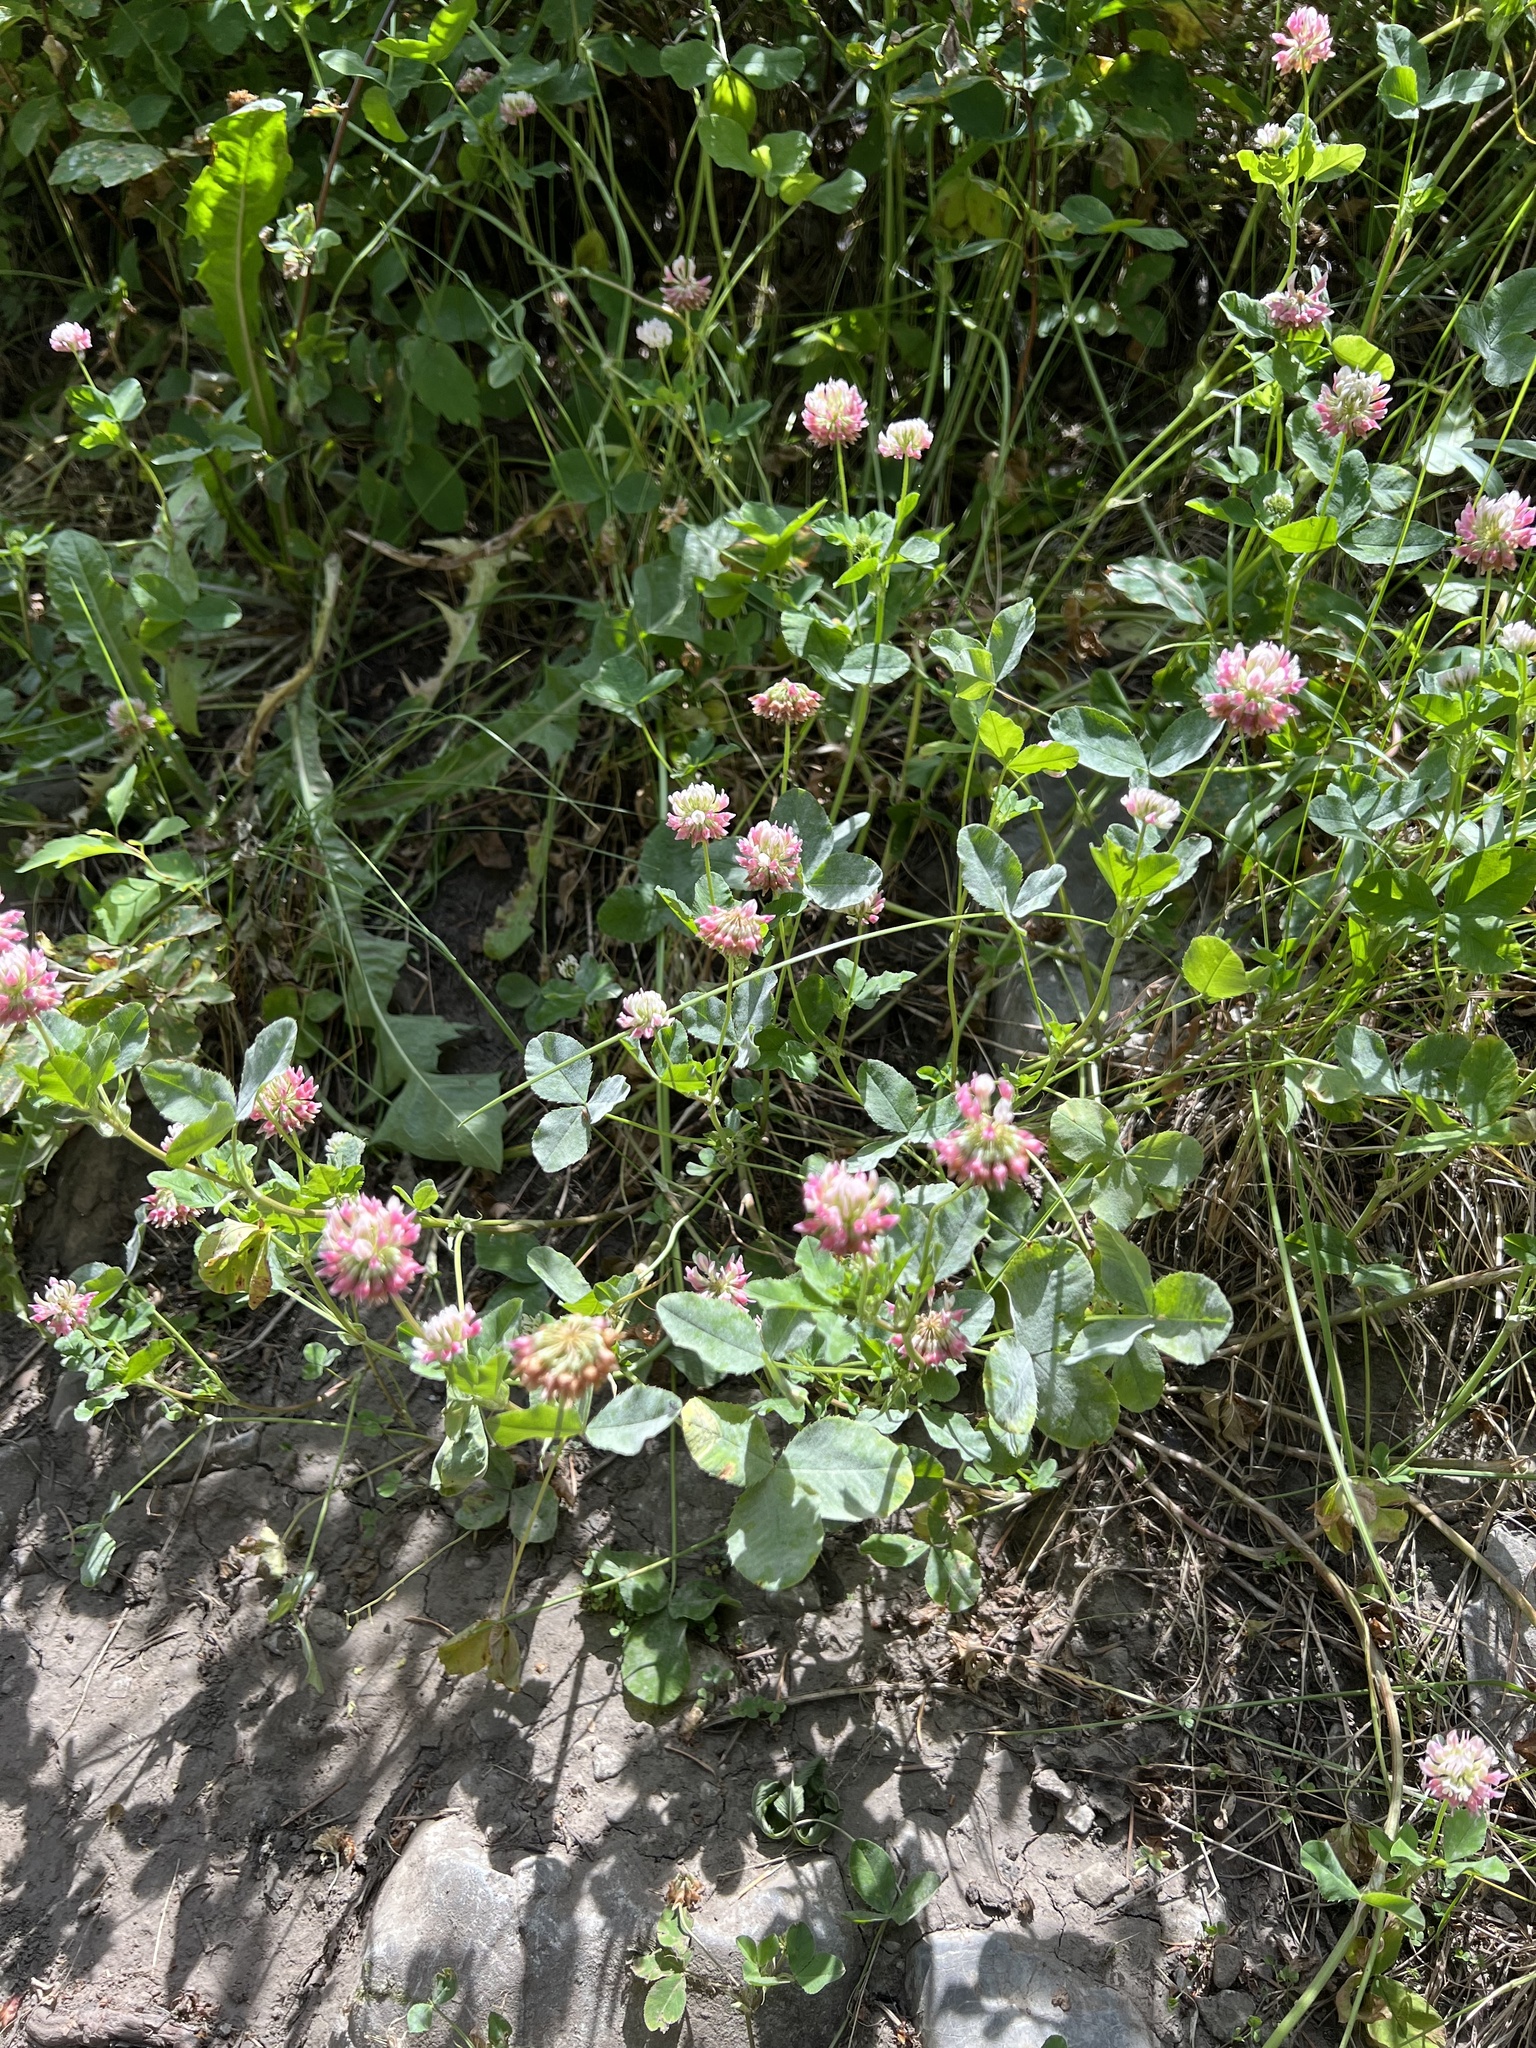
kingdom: Plantae
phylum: Tracheophyta
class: Magnoliopsida
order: Fabales
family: Fabaceae
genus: Trifolium
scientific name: Trifolium hybridum
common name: Alsike clover
